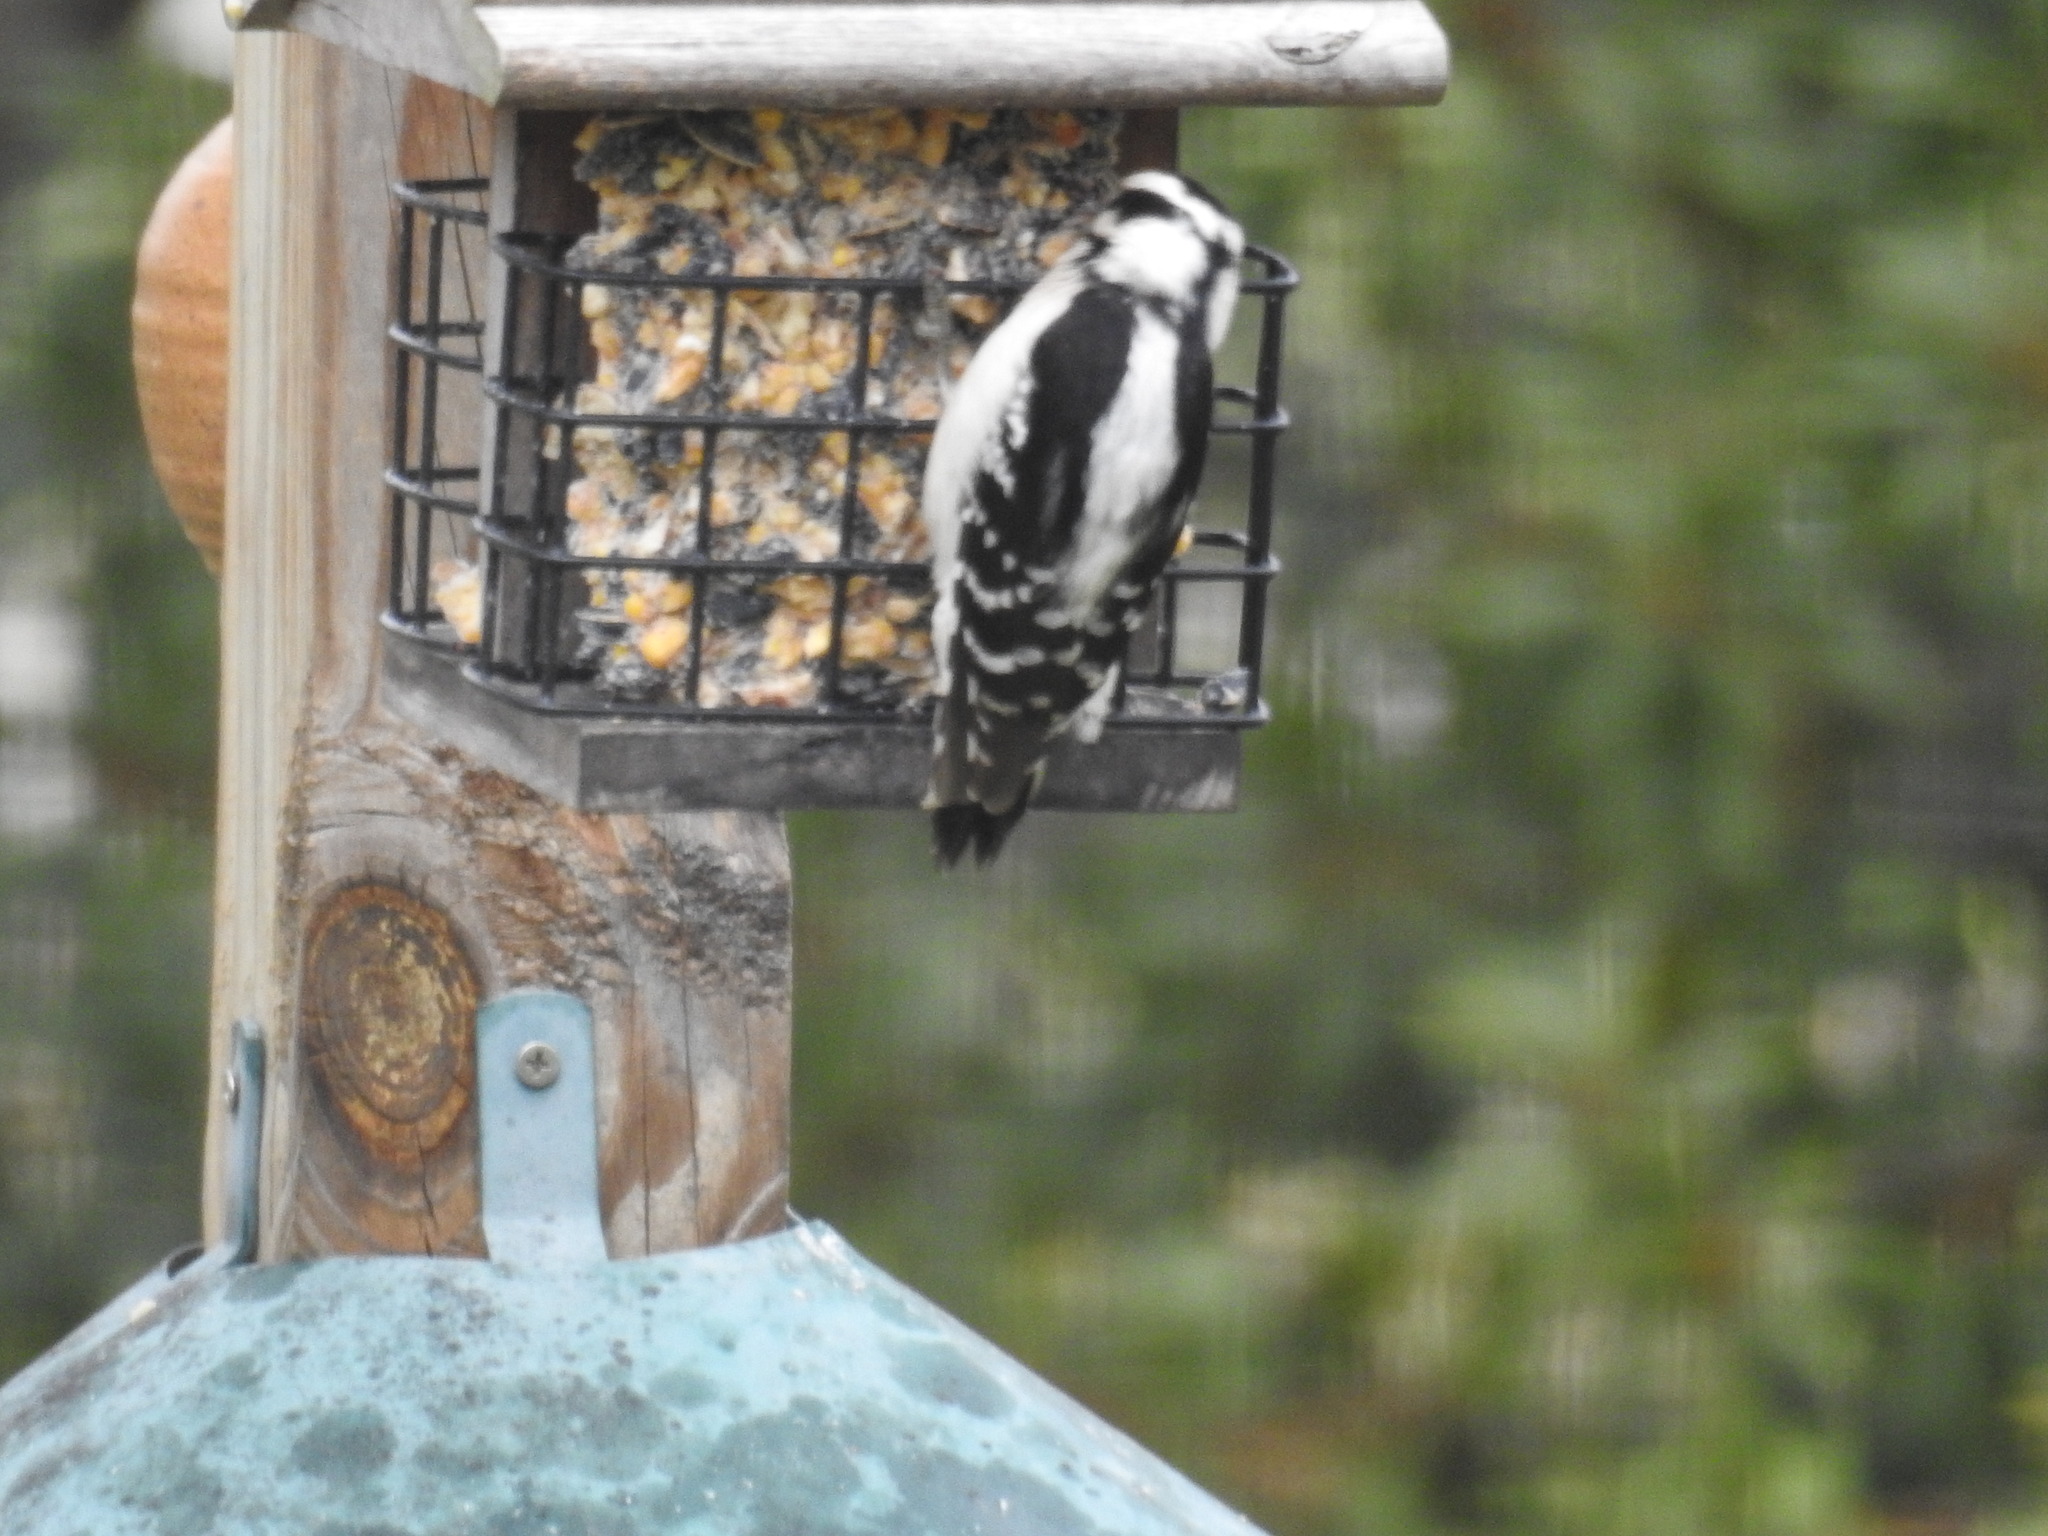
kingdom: Animalia
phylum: Chordata
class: Aves
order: Piciformes
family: Picidae
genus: Dryobates
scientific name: Dryobates pubescens
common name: Downy woodpecker
